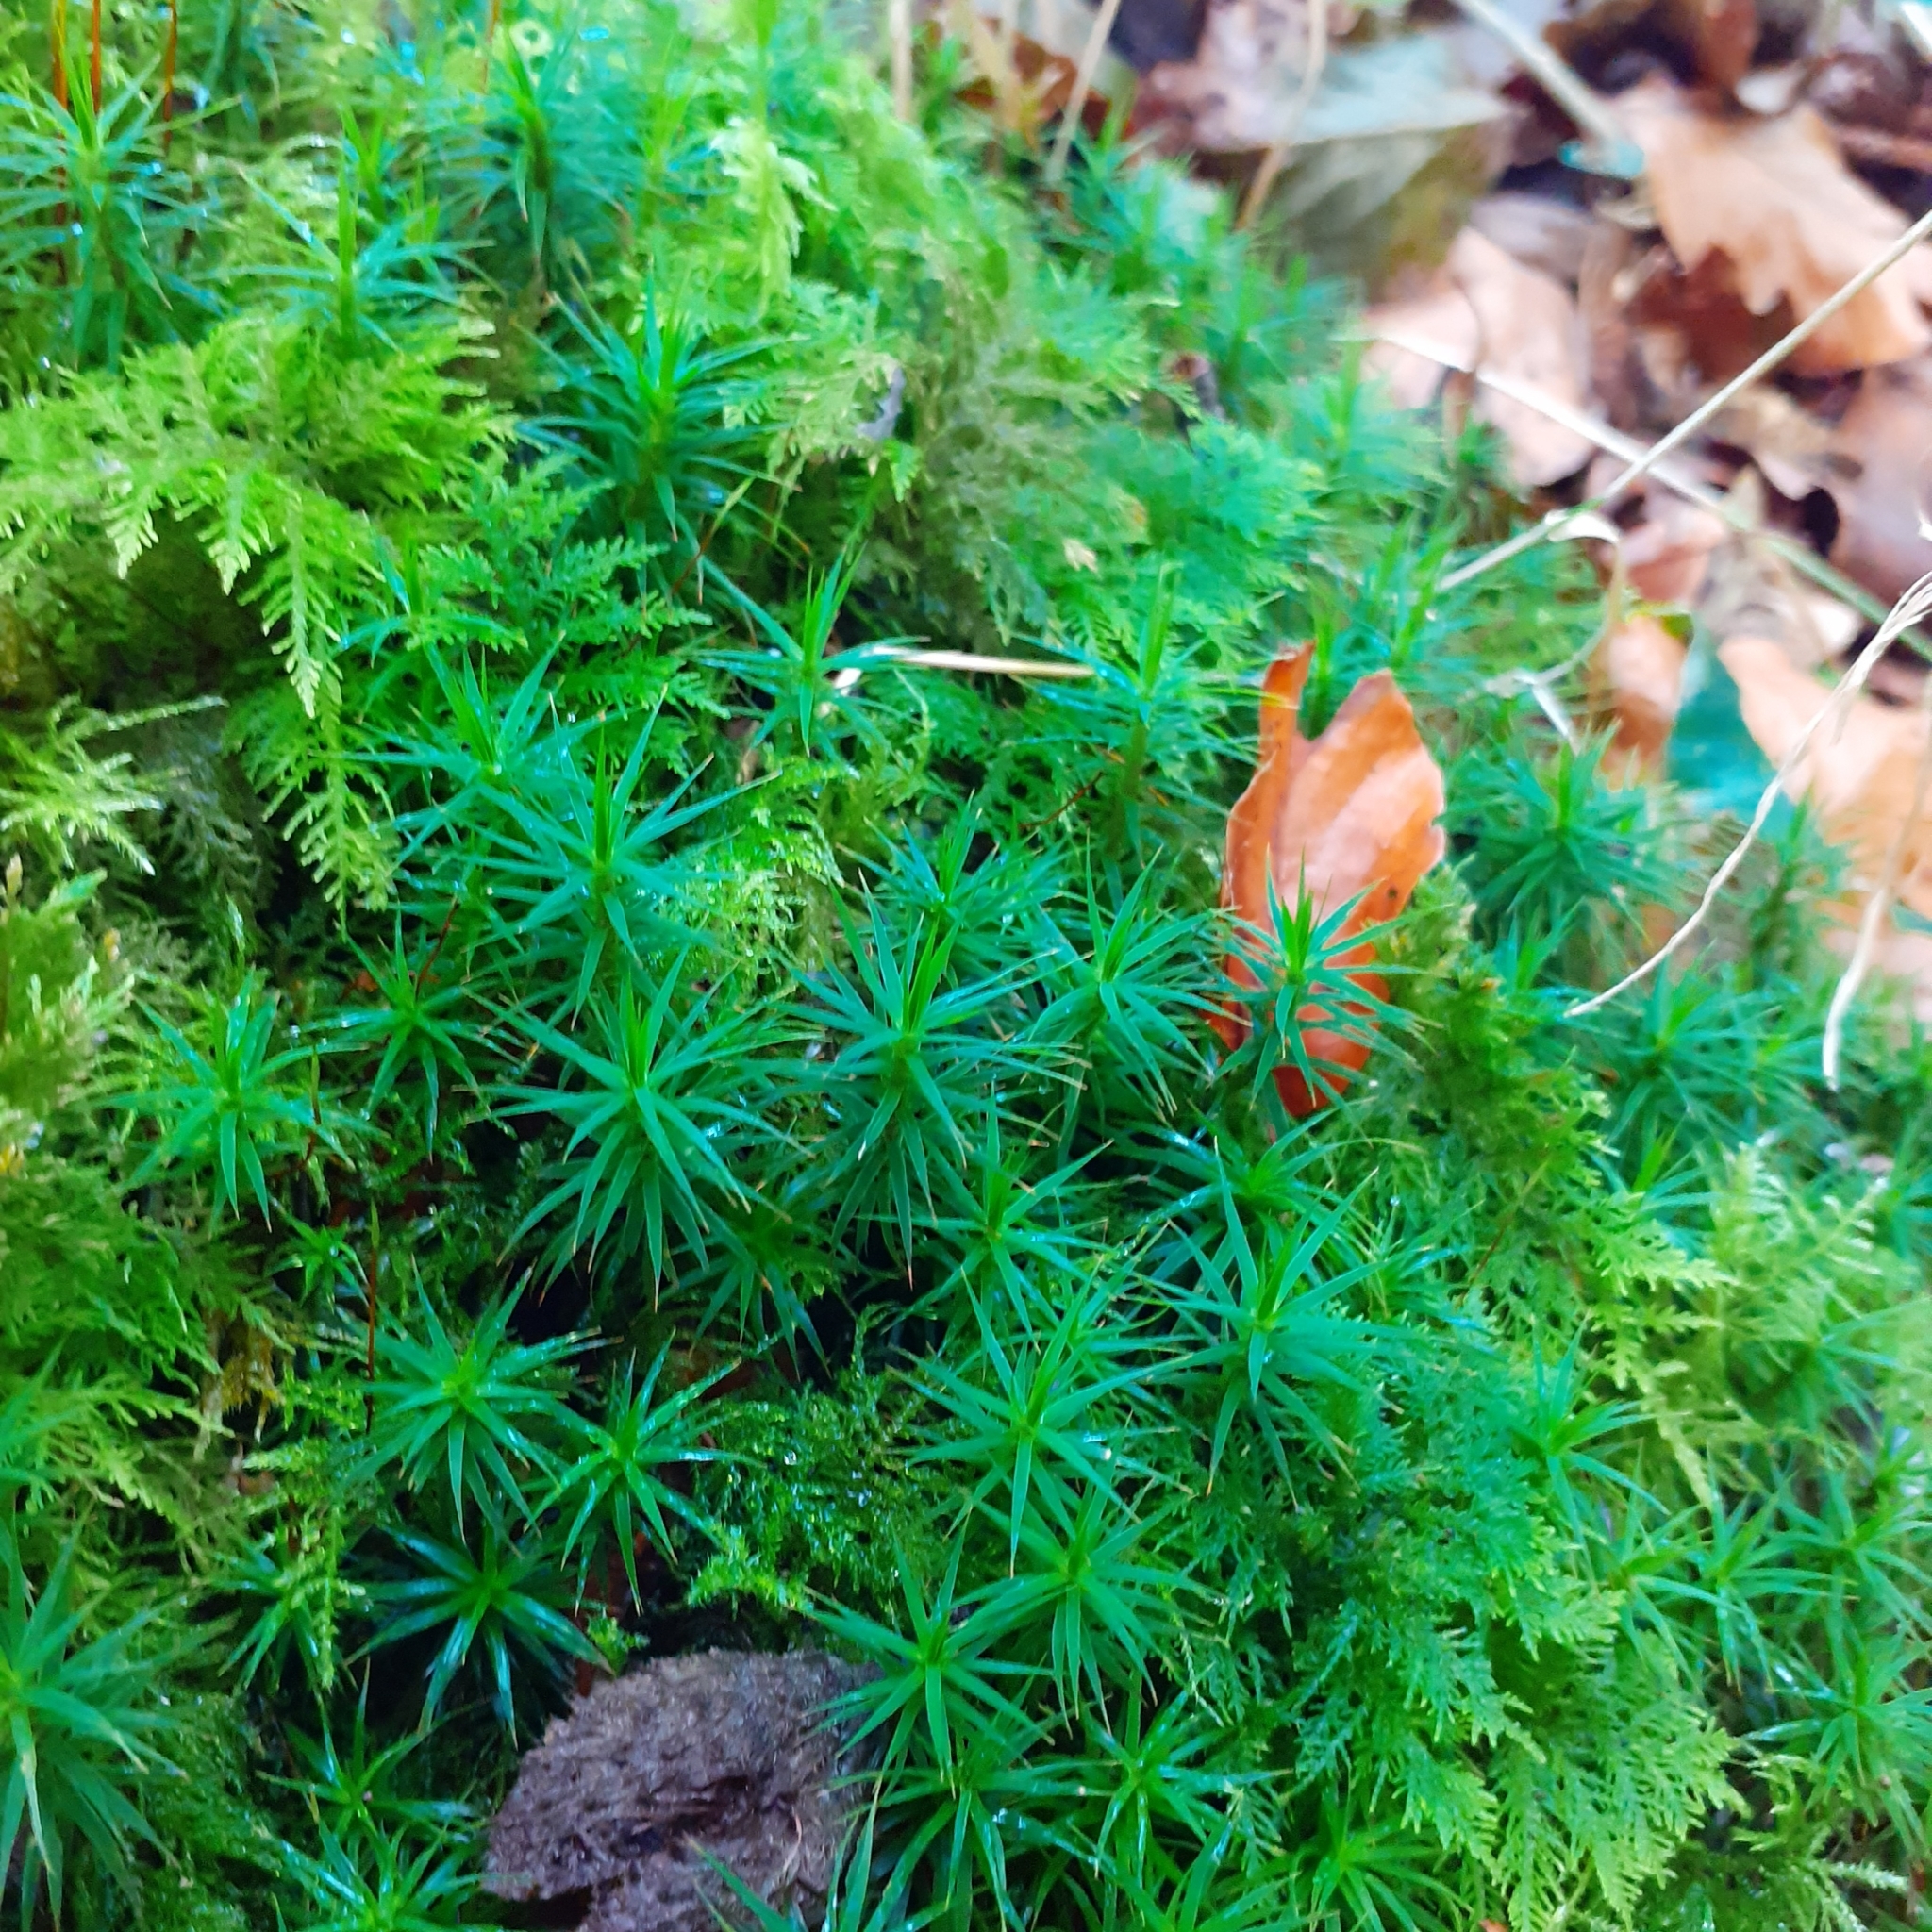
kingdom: Plantae
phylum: Bryophyta
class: Polytrichopsida
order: Polytrichales
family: Polytrichaceae
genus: Polytrichum
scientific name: Polytrichum formosum
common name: Bank haircap moss
